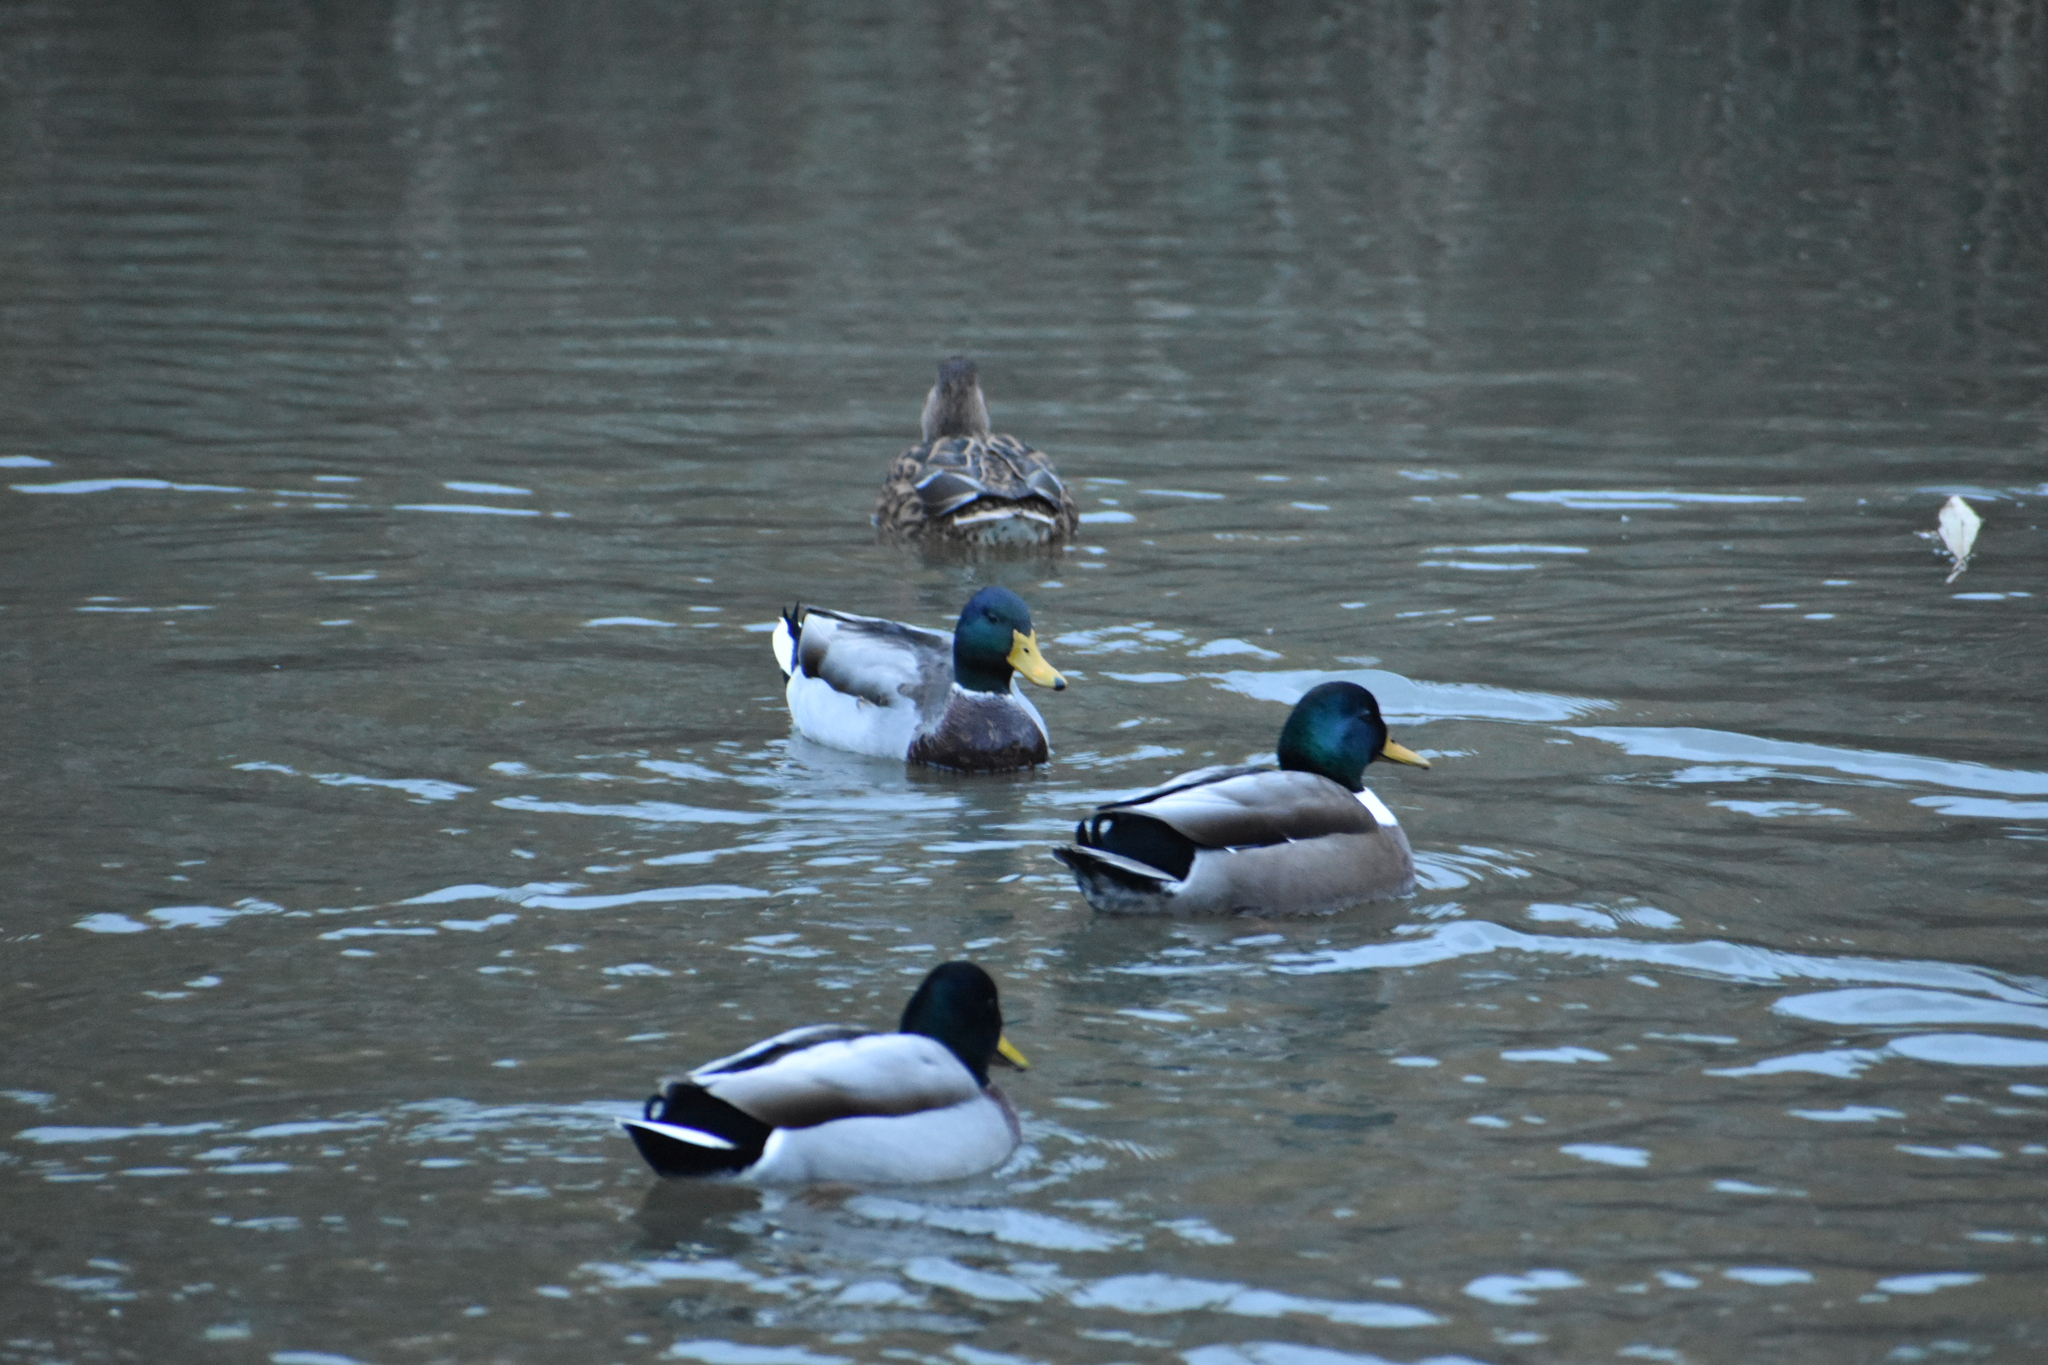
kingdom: Animalia
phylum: Chordata
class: Aves
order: Anseriformes
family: Anatidae
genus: Anas
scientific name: Anas platyrhynchos
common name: Mallard
